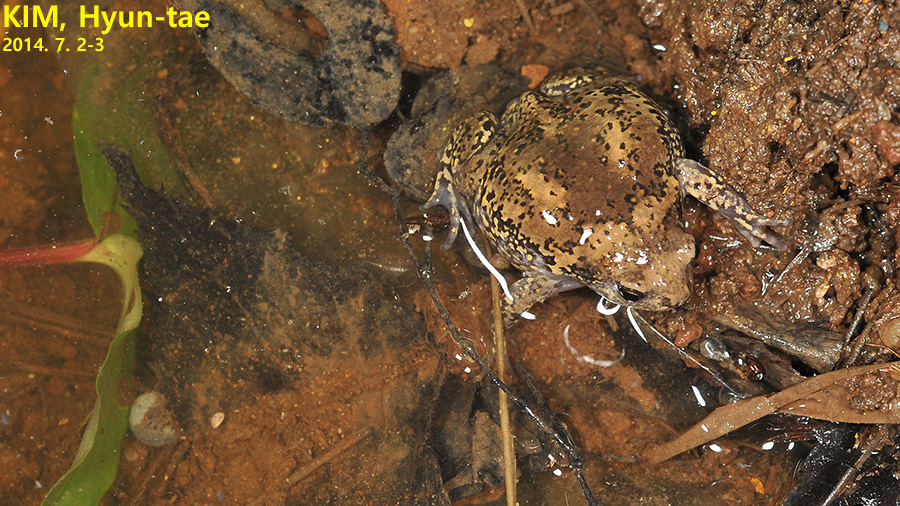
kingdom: Animalia
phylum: Chordata
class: Amphibia
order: Anura
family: Microhylidae
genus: Kaloula
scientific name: Kaloula borealis
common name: Boreal digging frog
